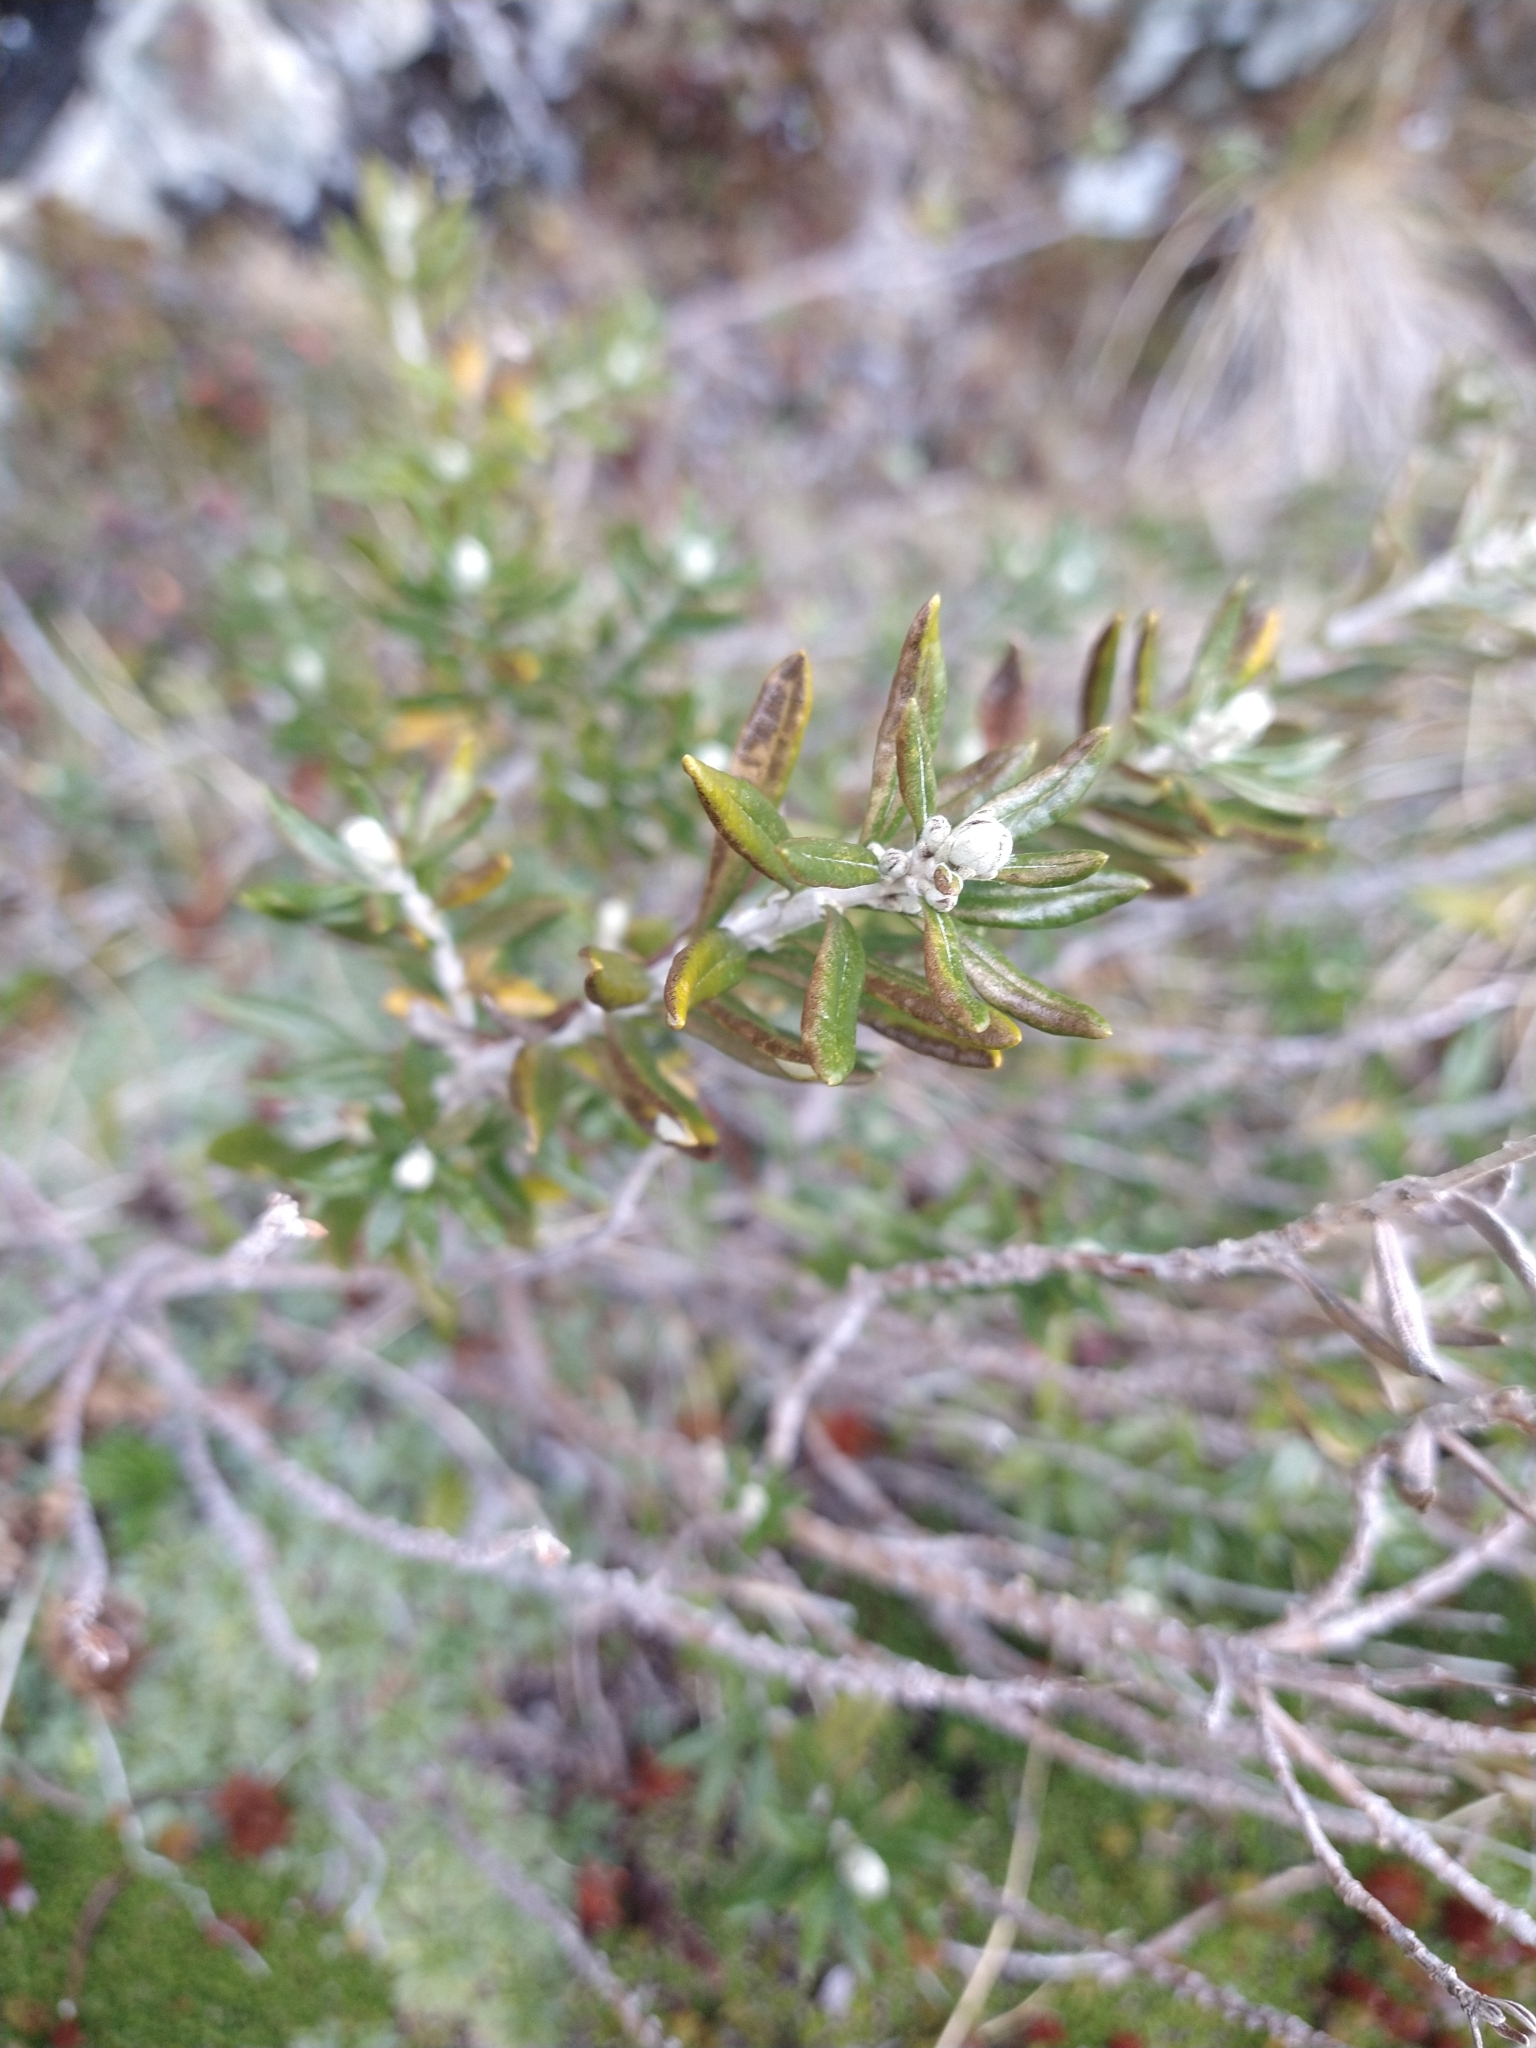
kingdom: Plantae
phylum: Tracheophyta
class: Magnoliopsida
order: Asterales
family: Asteraceae
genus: Chiliotrichum
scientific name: Chiliotrichum diffusum
